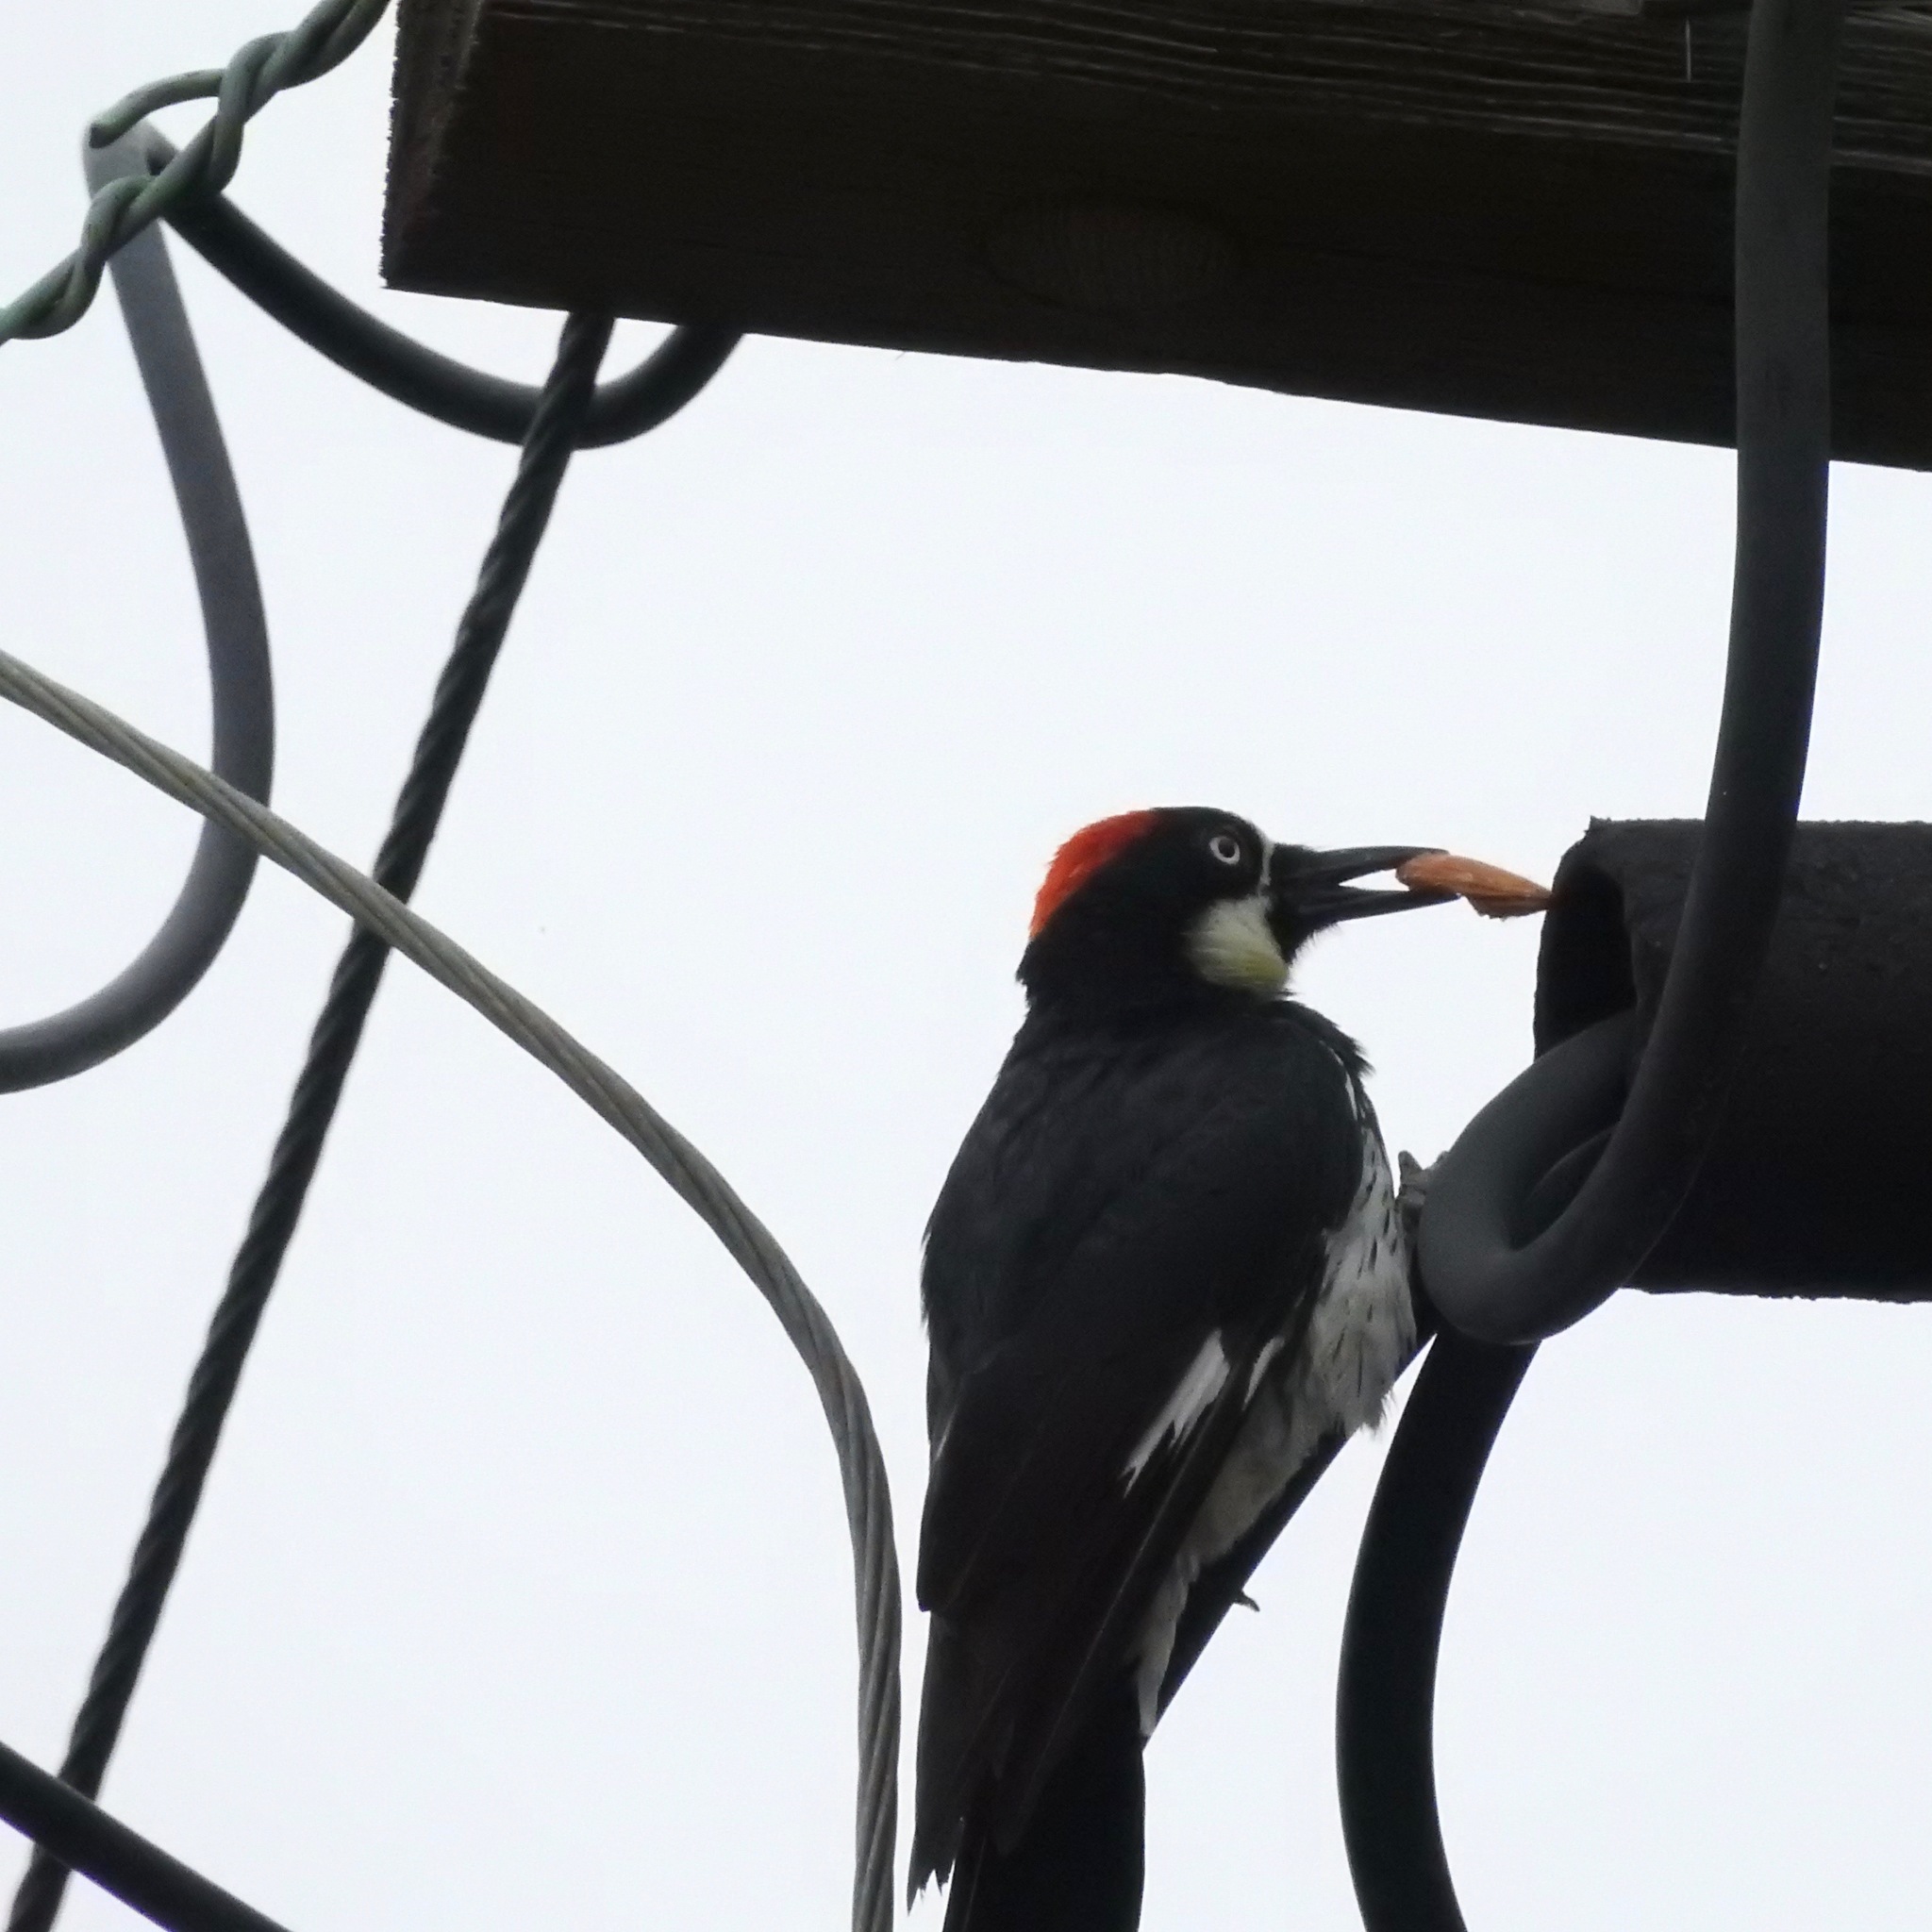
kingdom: Animalia
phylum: Chordata
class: Aves
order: Piciformes
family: Picidae
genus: Melanerpes
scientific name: Melanerpes formicivorus
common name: Acorn woodpecker
